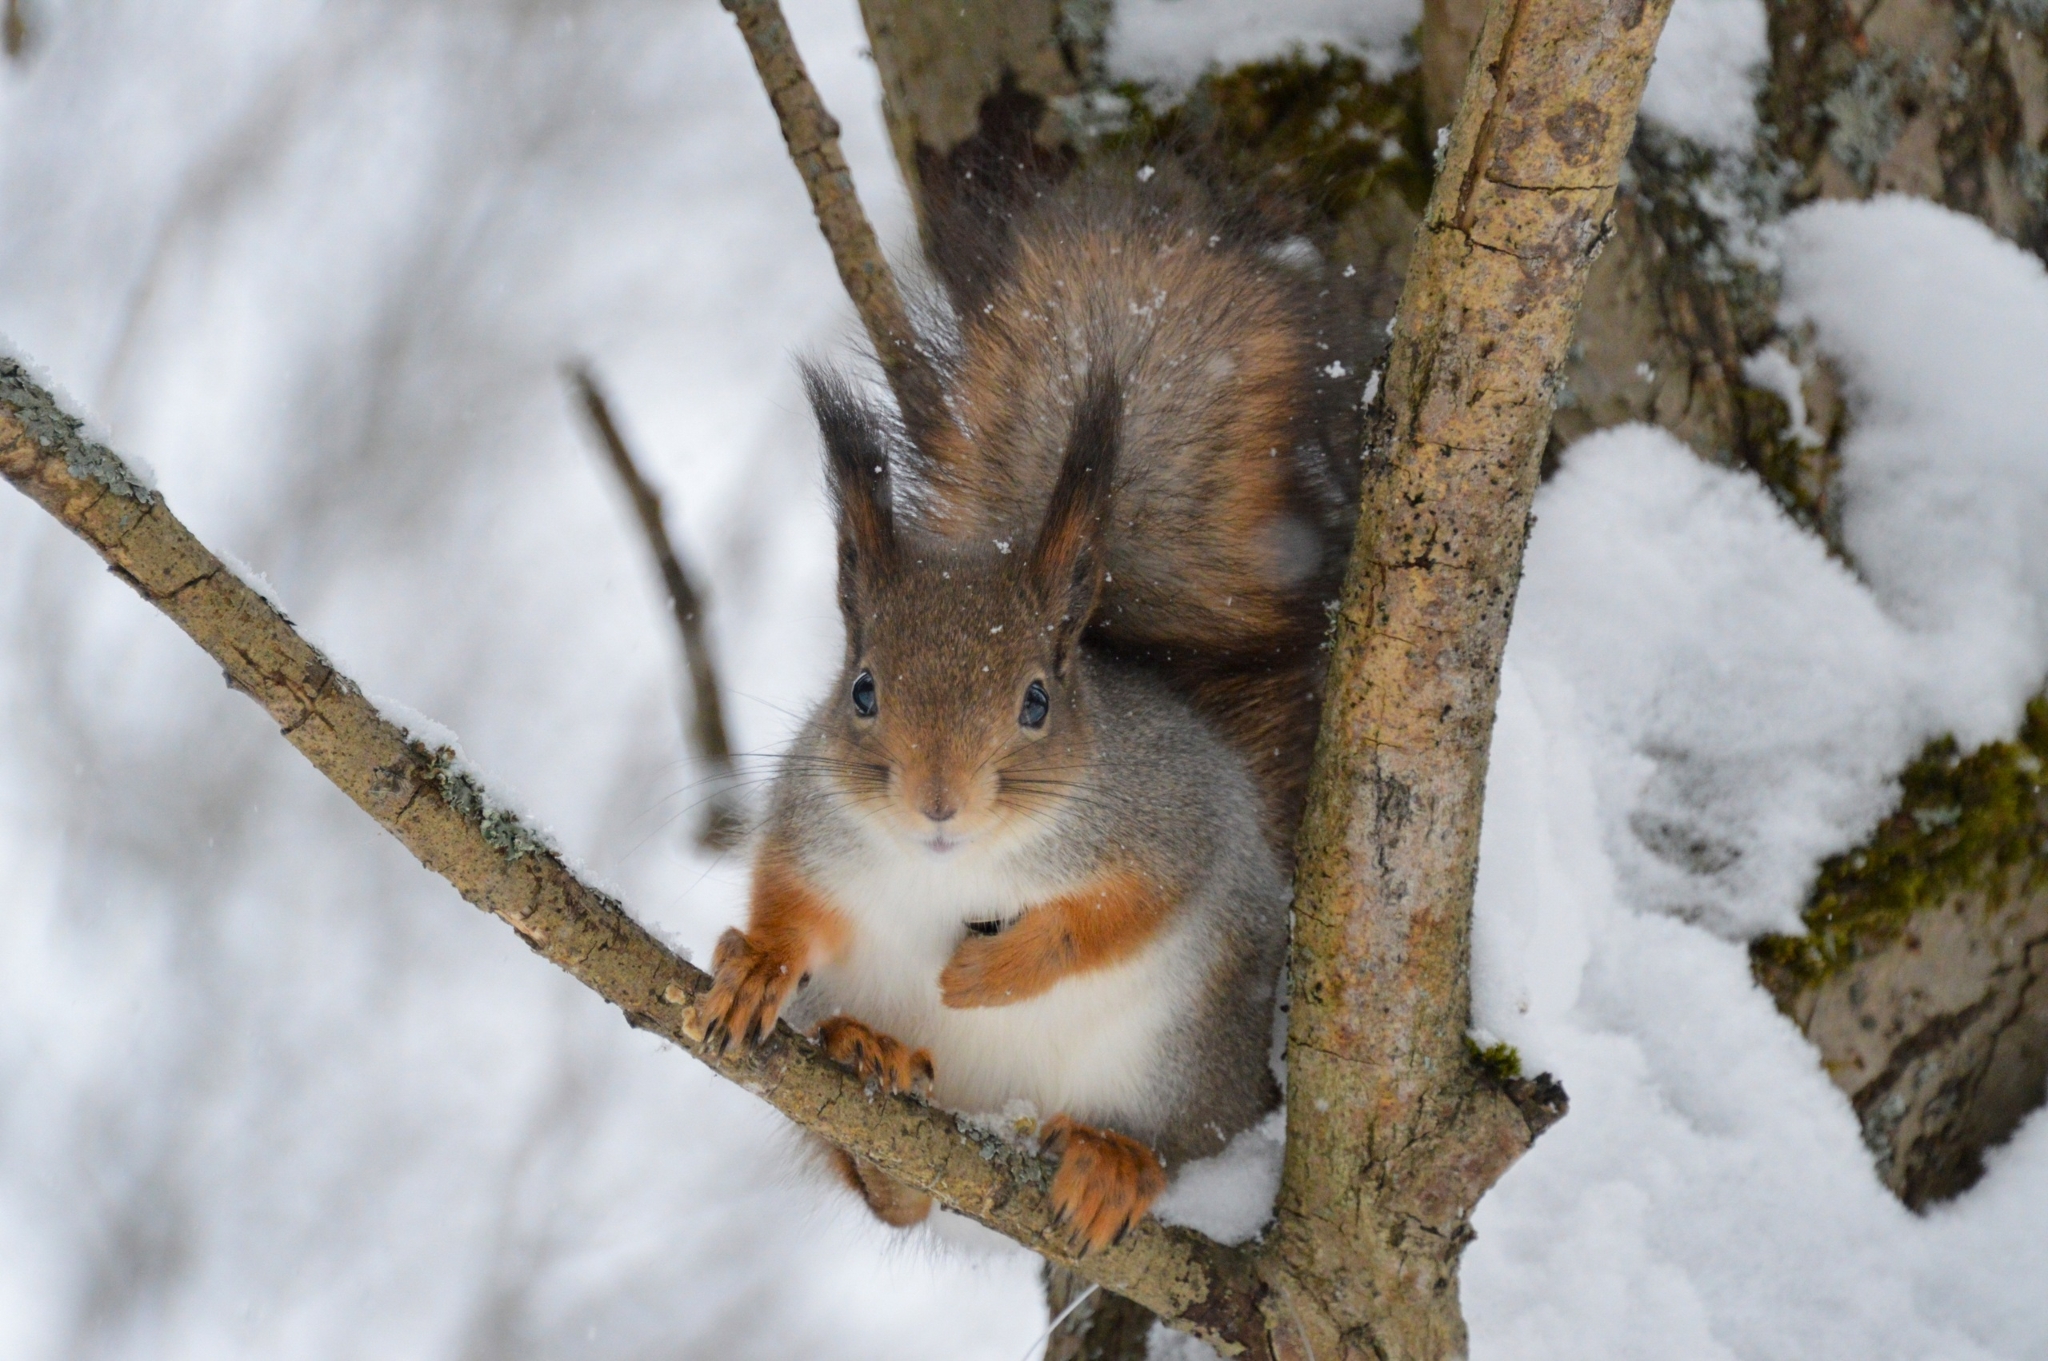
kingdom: Animalia
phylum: Chordata
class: Mammalia
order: Rodentia
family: Sciuridae
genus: Sciurus
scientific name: Sciurus vulgaris
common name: Eurasian red squirrel
